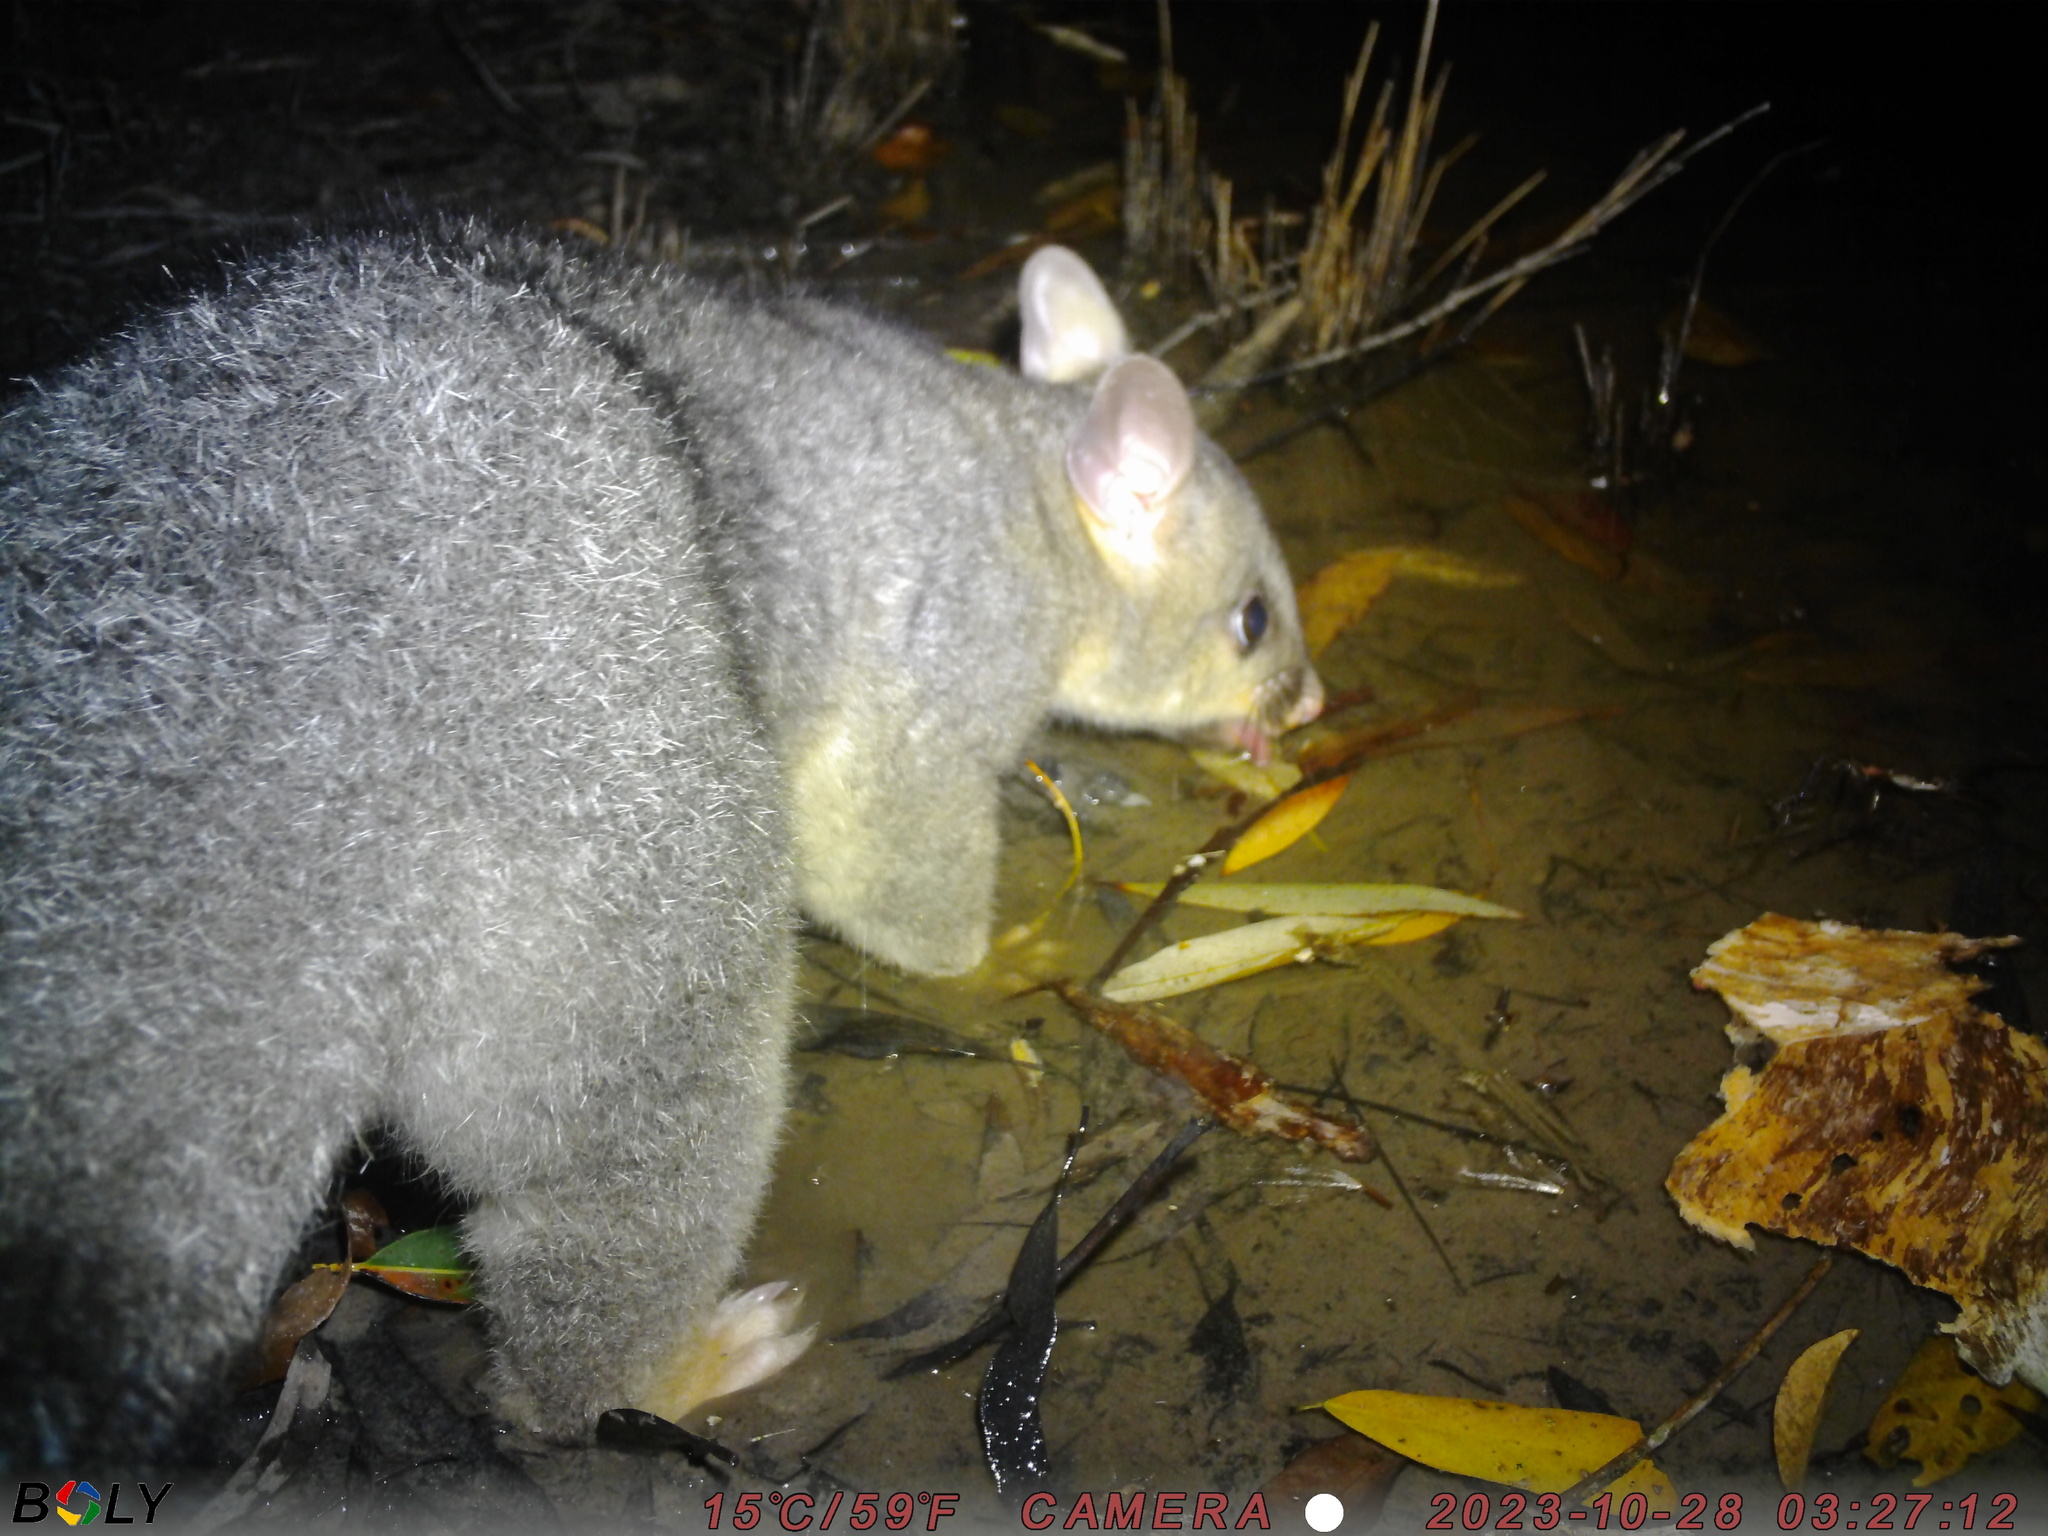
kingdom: Animalia
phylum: Chordata
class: Mammalia
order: Diprotodontia
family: Phalangeridae
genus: Trichosurus
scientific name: Trichosurus vulpecula
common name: Common brushtail
